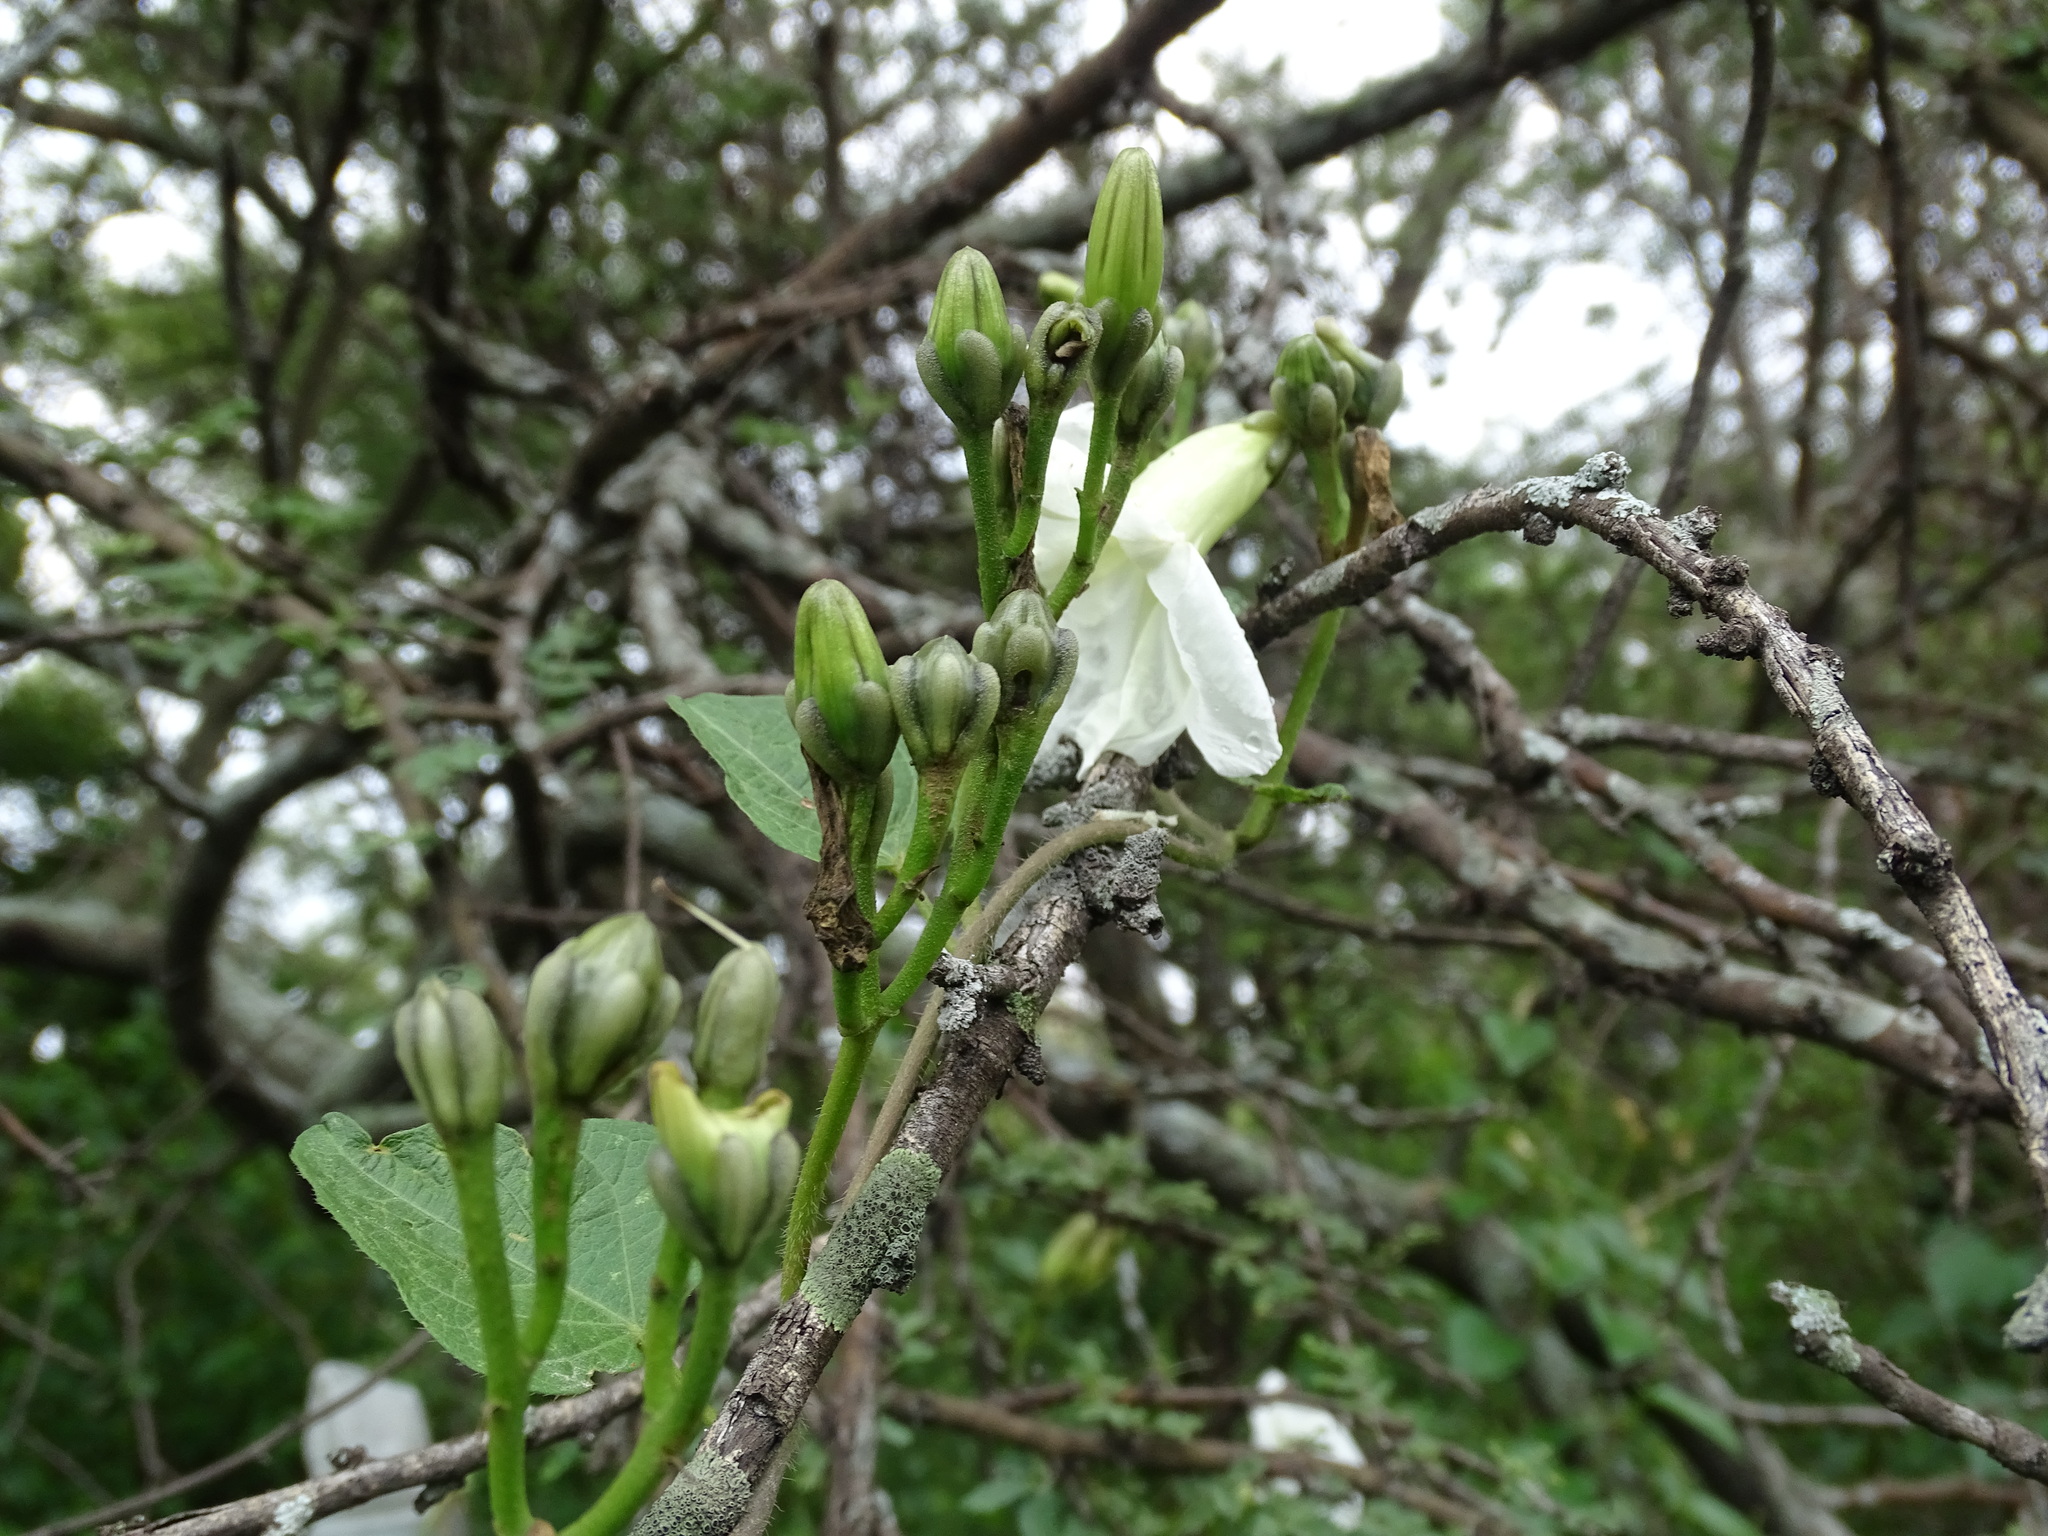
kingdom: Plantae
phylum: Tracheophyta
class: Magnoliopsida
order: Solanales
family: Convolvulaceae
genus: Ipomoea
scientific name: Ipomoea proxima
